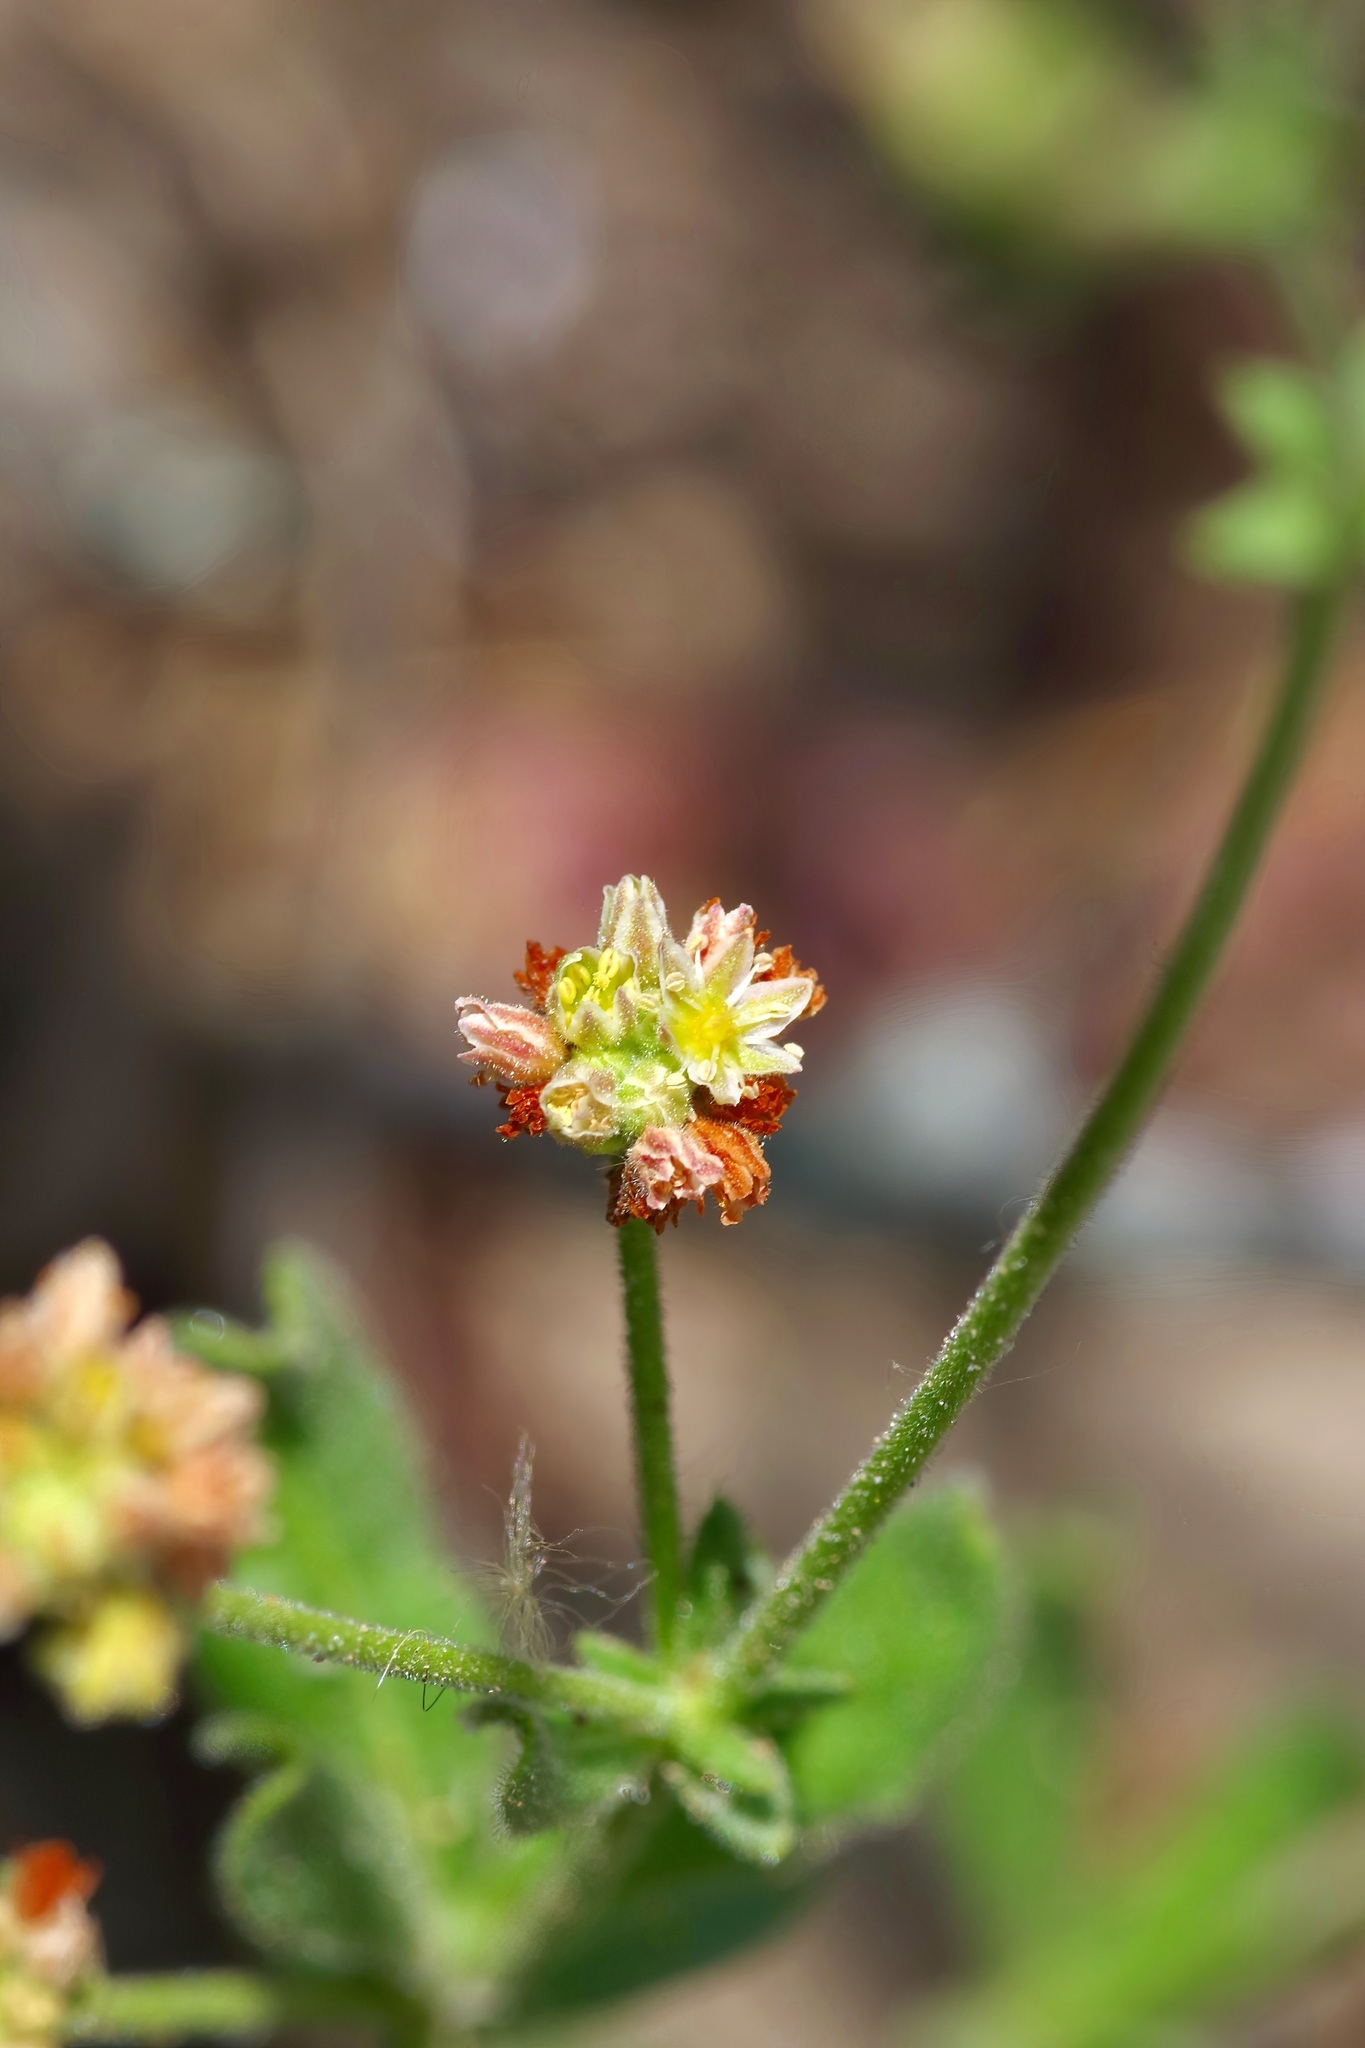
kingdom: Plantae
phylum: Tracheophyta
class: Magnoliopsida
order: Caryophyllales
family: Polygonaceae
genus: Eriogonum
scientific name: Eriogonum greggii
